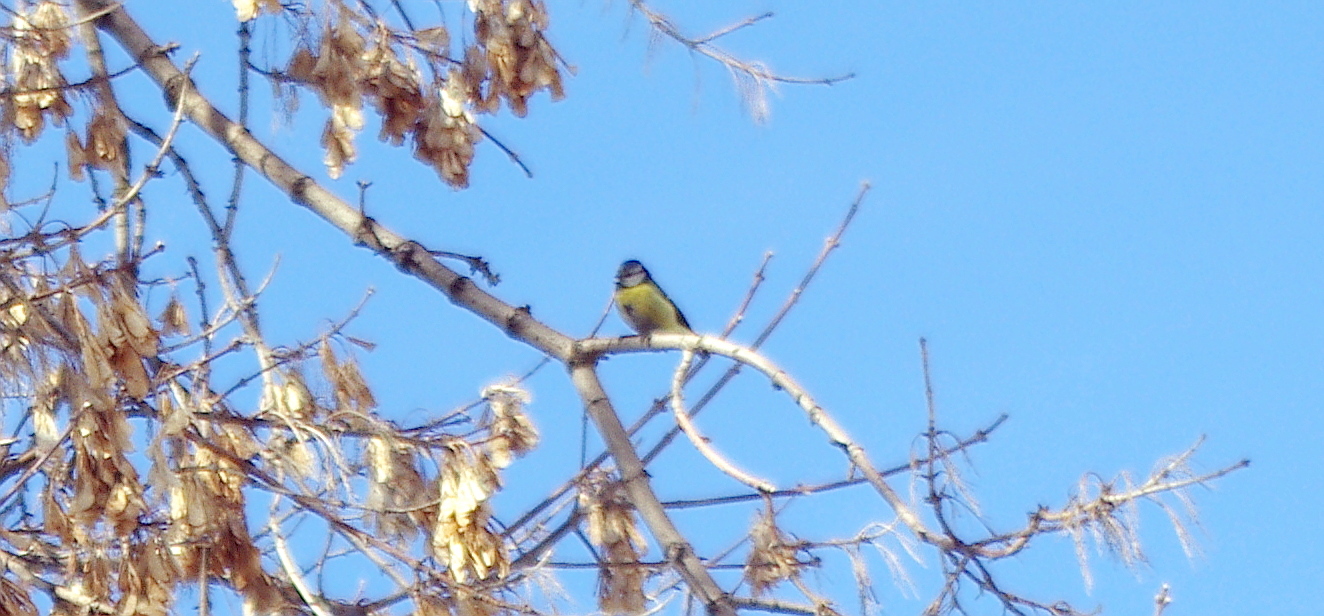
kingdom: Animalia
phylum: Chordata
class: Aves
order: Passeriformes
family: Paridae
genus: Cyanistes
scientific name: Cyanistes caeruleus
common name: Eurasian blue tit
